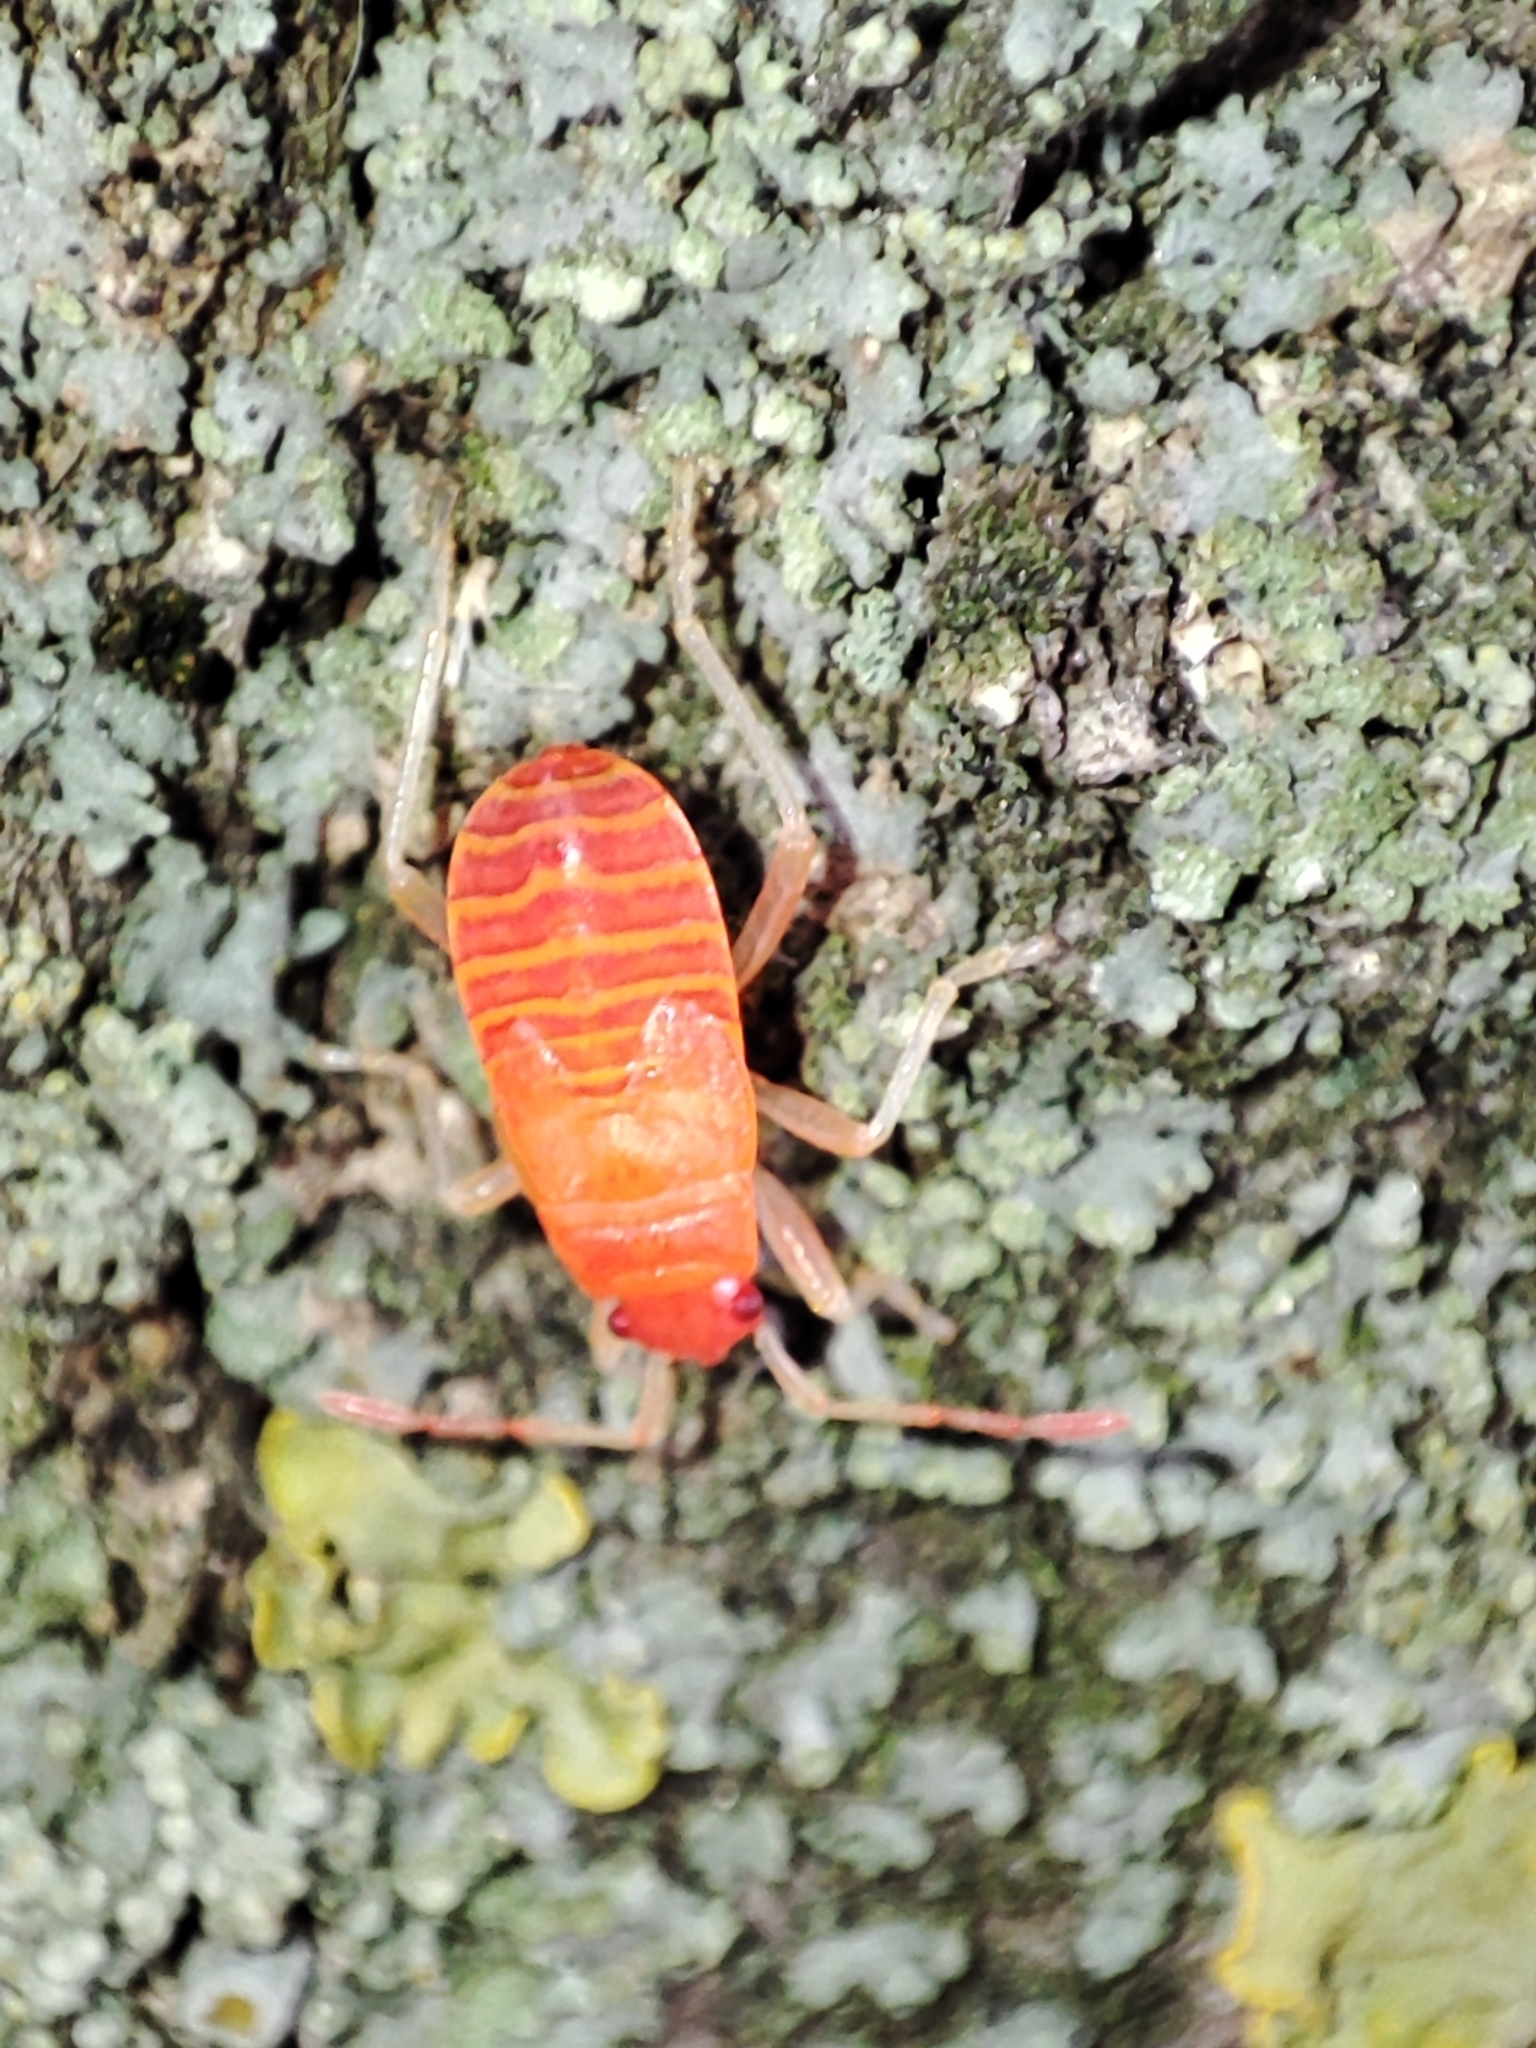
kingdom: Animalia
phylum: Arthropoda
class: Insecta
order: Hemiptera
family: Pyrrhocoridae
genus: Pyrrhocoris
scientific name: Pyrrhocoris apterus
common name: Firebug
